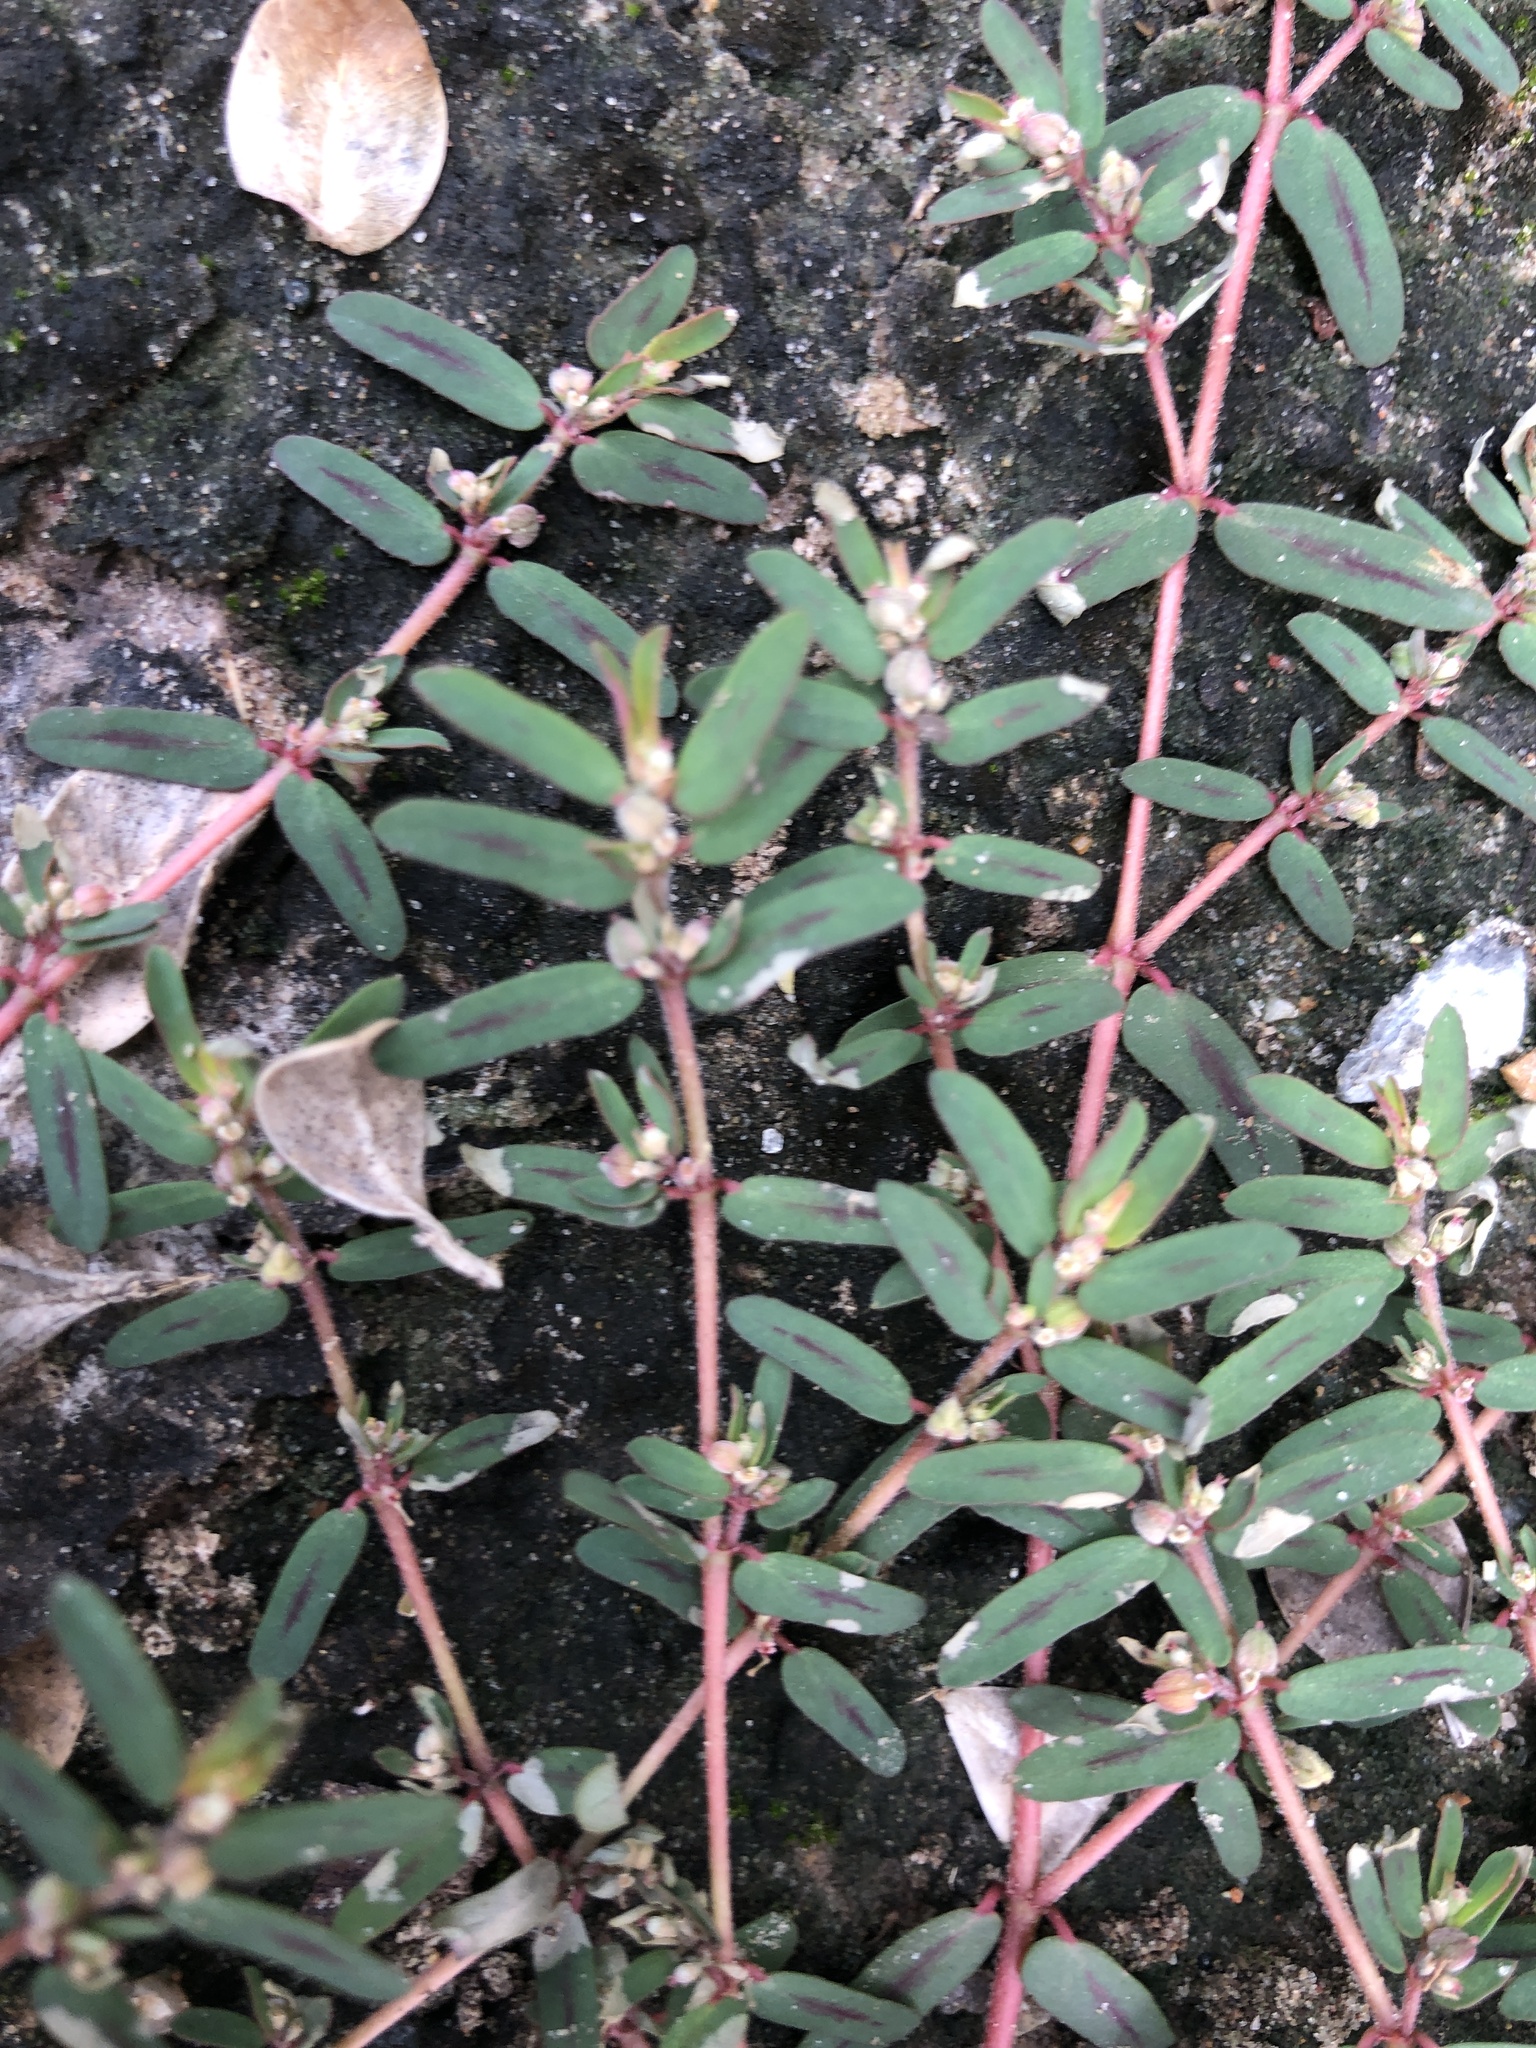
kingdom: Plantae
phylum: Tracheophyta
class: Magnoliopsida
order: Malpighiales
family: Euphorbiaceae
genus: Euphorbia
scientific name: Euphorbia maculata
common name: Spotted spurge
